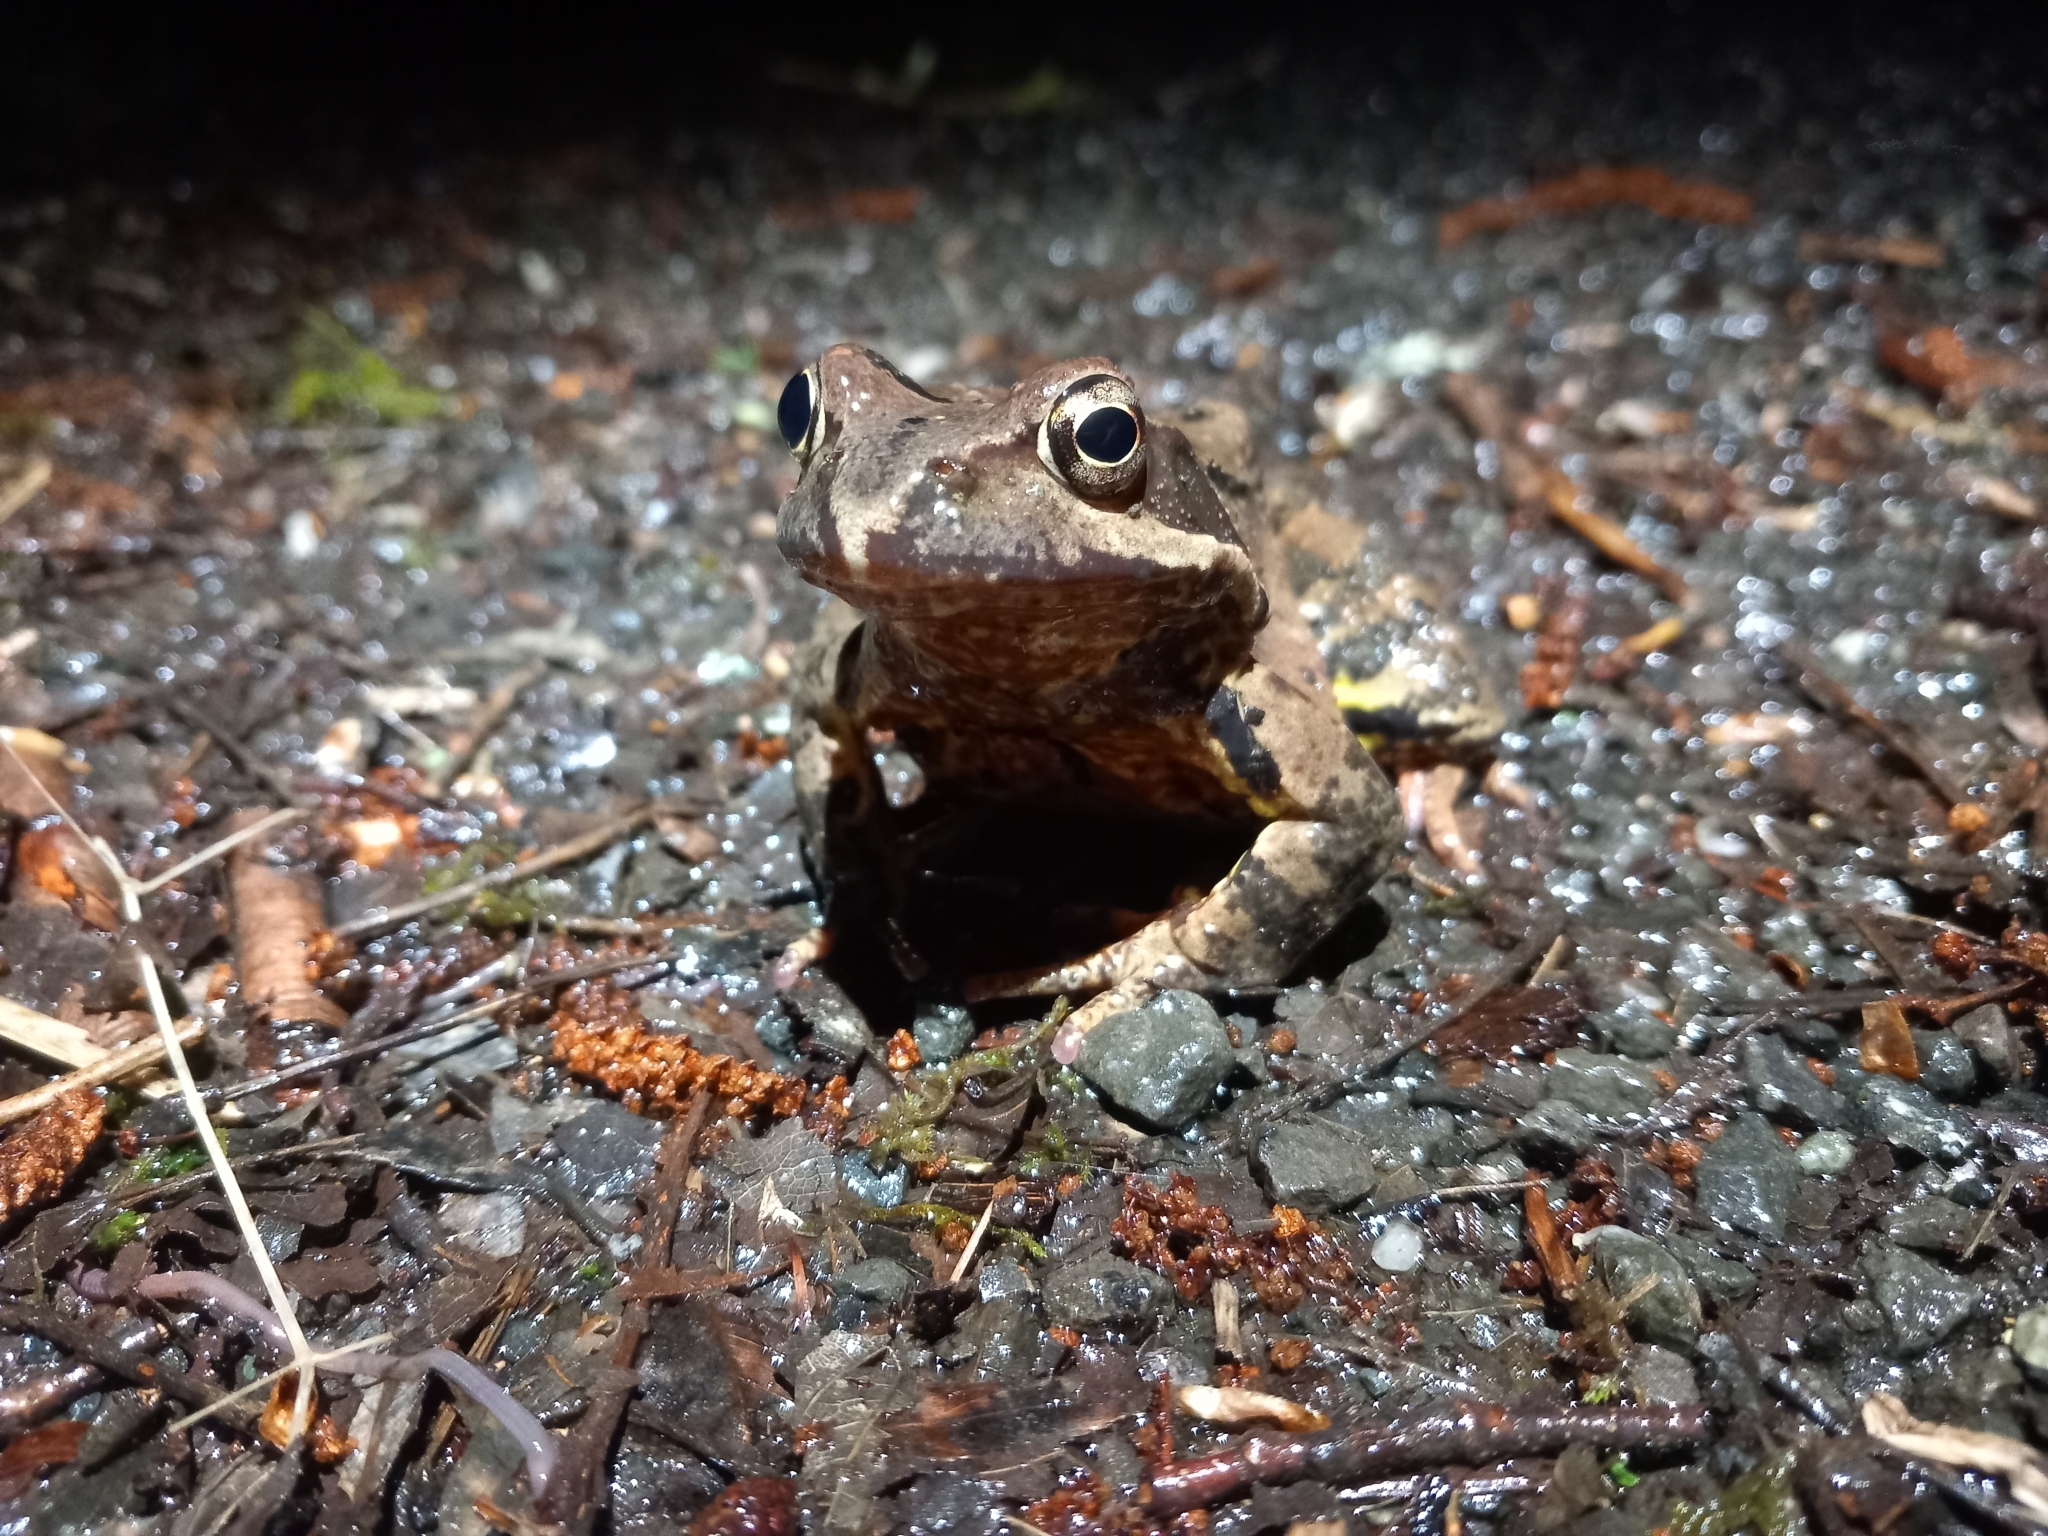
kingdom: Animalia
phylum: Chordata
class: Amphibia
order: Anura
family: Ranidae
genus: Rana
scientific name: Rana temporaria
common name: Common frog
